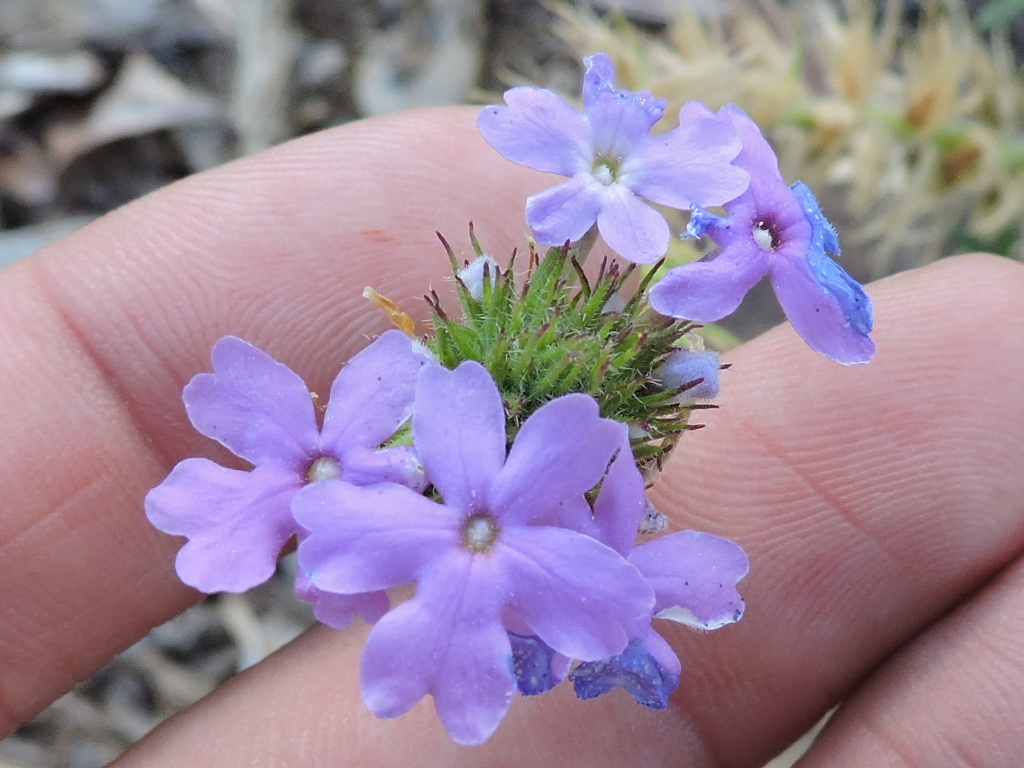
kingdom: Plantae
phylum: Tracheophyta
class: Magnoliopsida
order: Lamiales
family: Verbenaceae
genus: Verbena
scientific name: Verbena bipinnatifida
